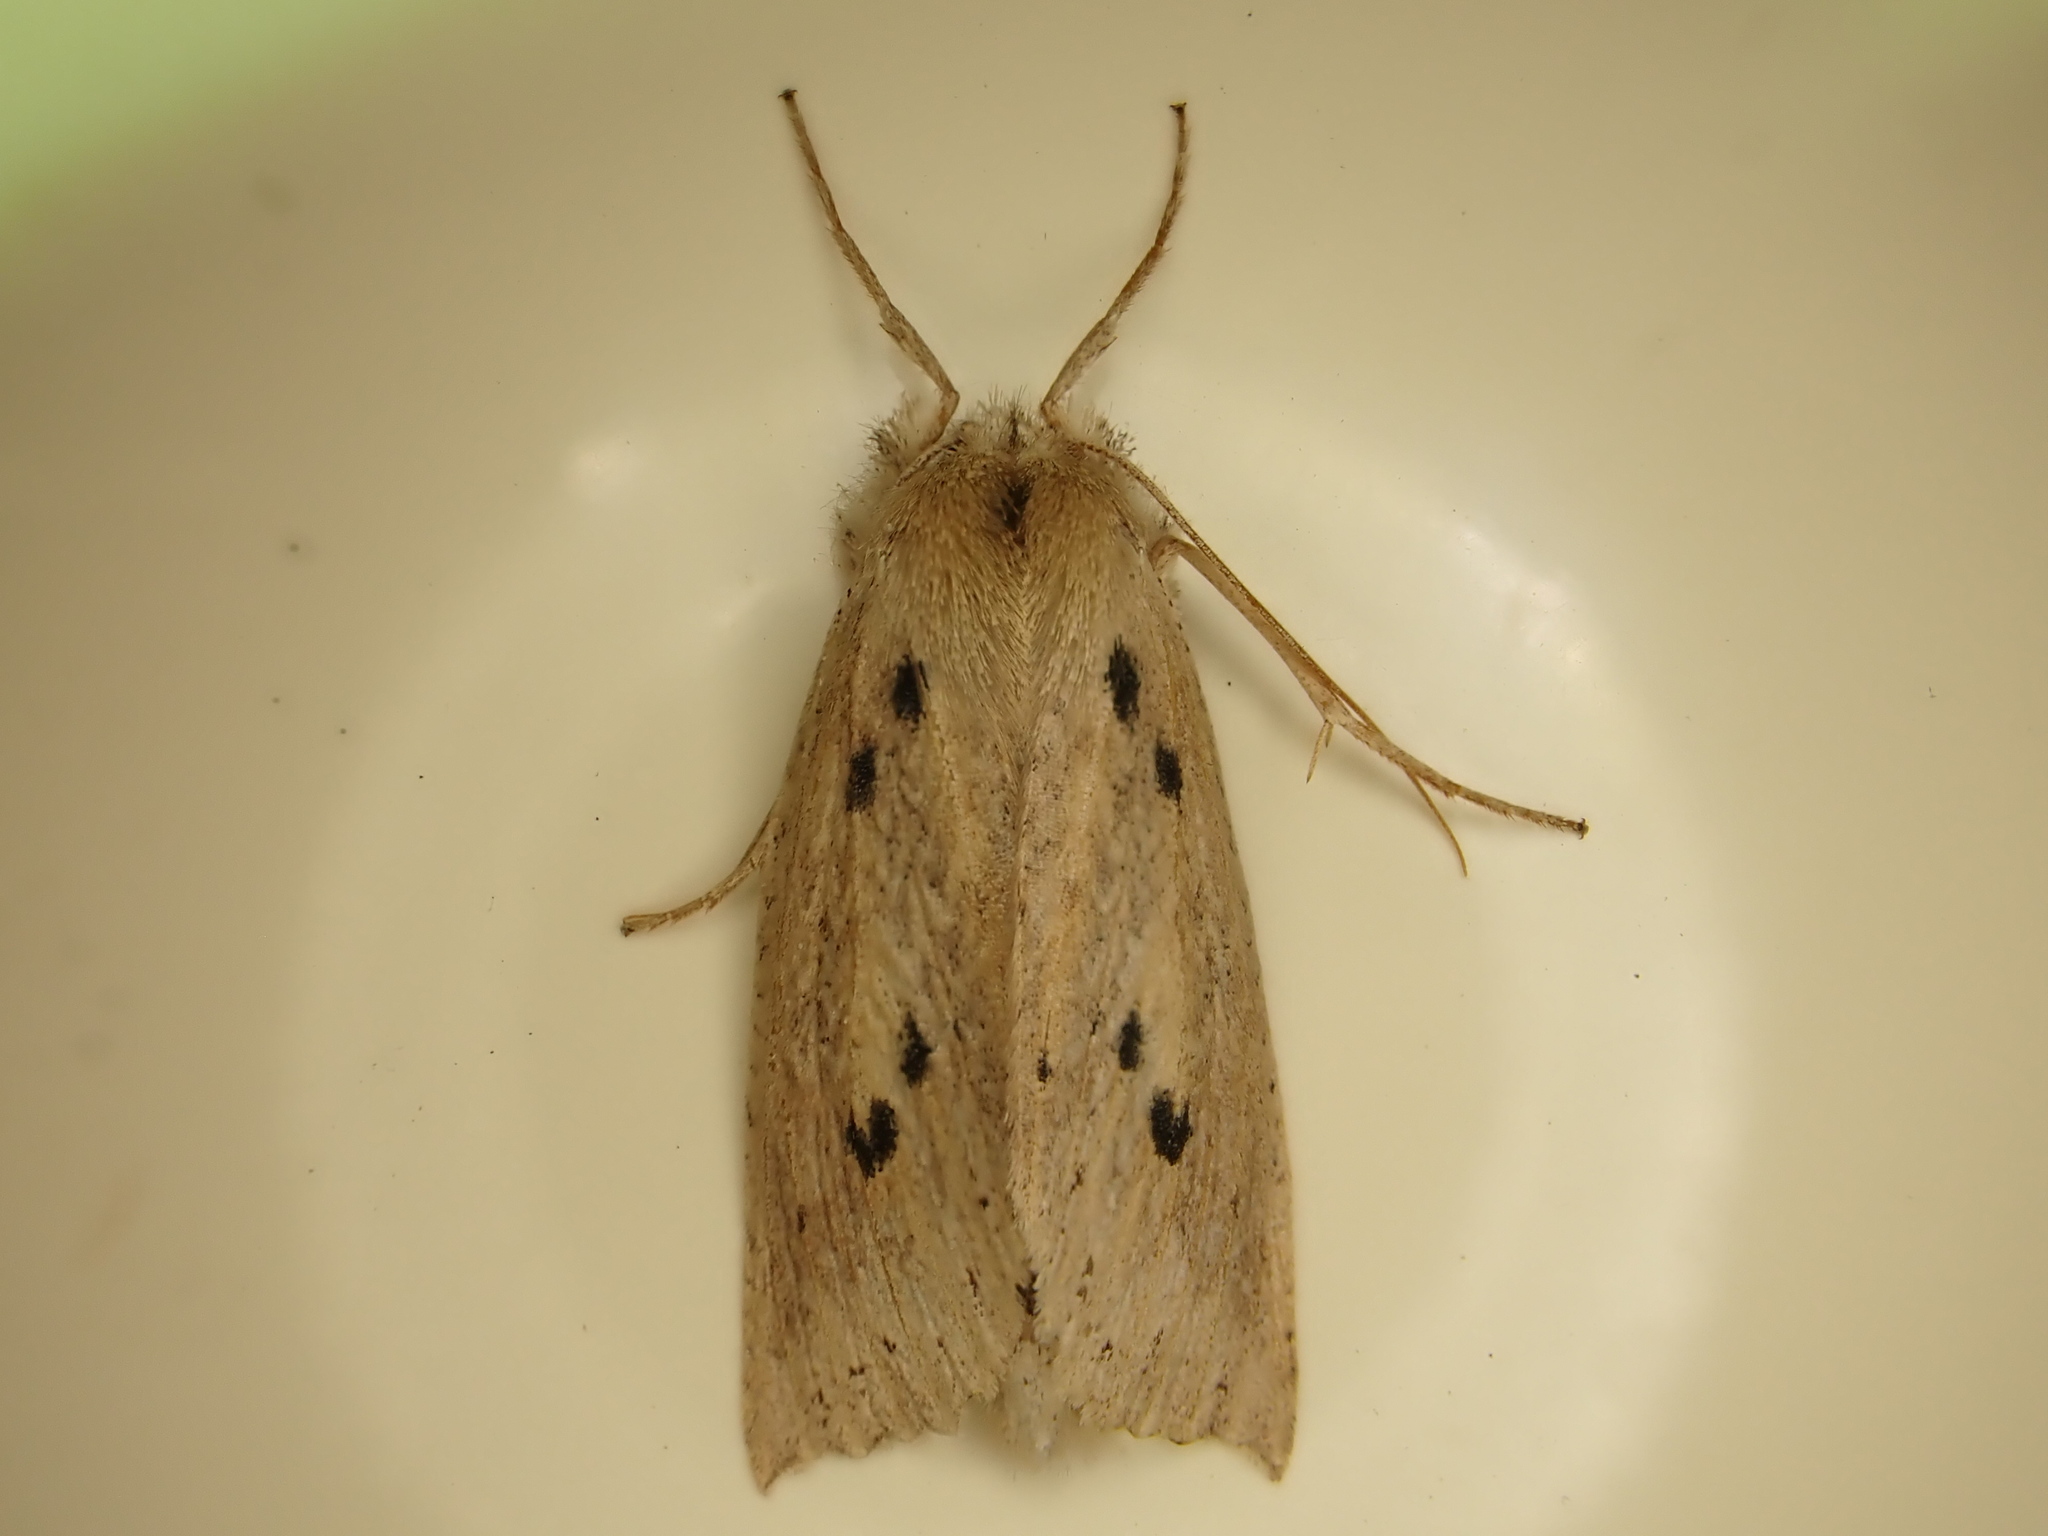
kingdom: Animalia
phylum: Arthropoda
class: Insecta
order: Lepidoptera
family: Geometridae
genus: Declana
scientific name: Declana leptomera
